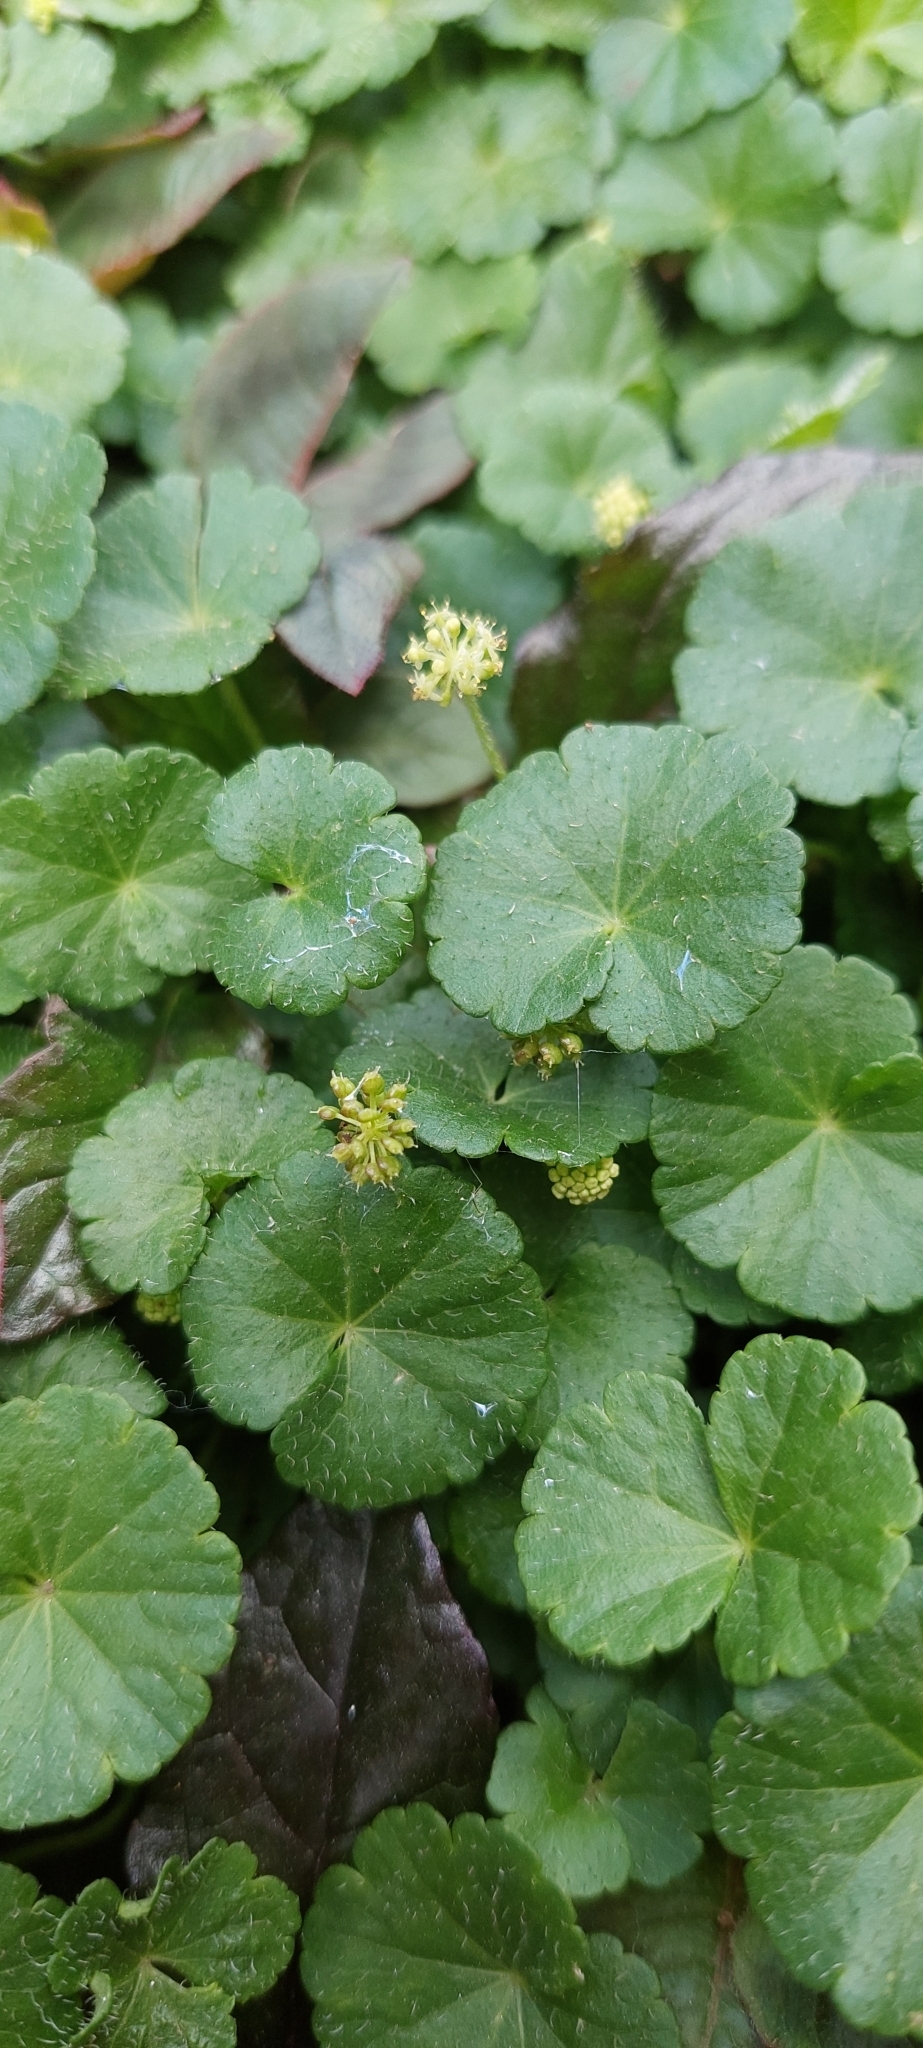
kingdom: Plantae
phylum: Tracheophyta
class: Magnoliopsida
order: Apiales
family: Araliaceae
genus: Hydrocotyle
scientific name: Hydrocotyle bonplandii
